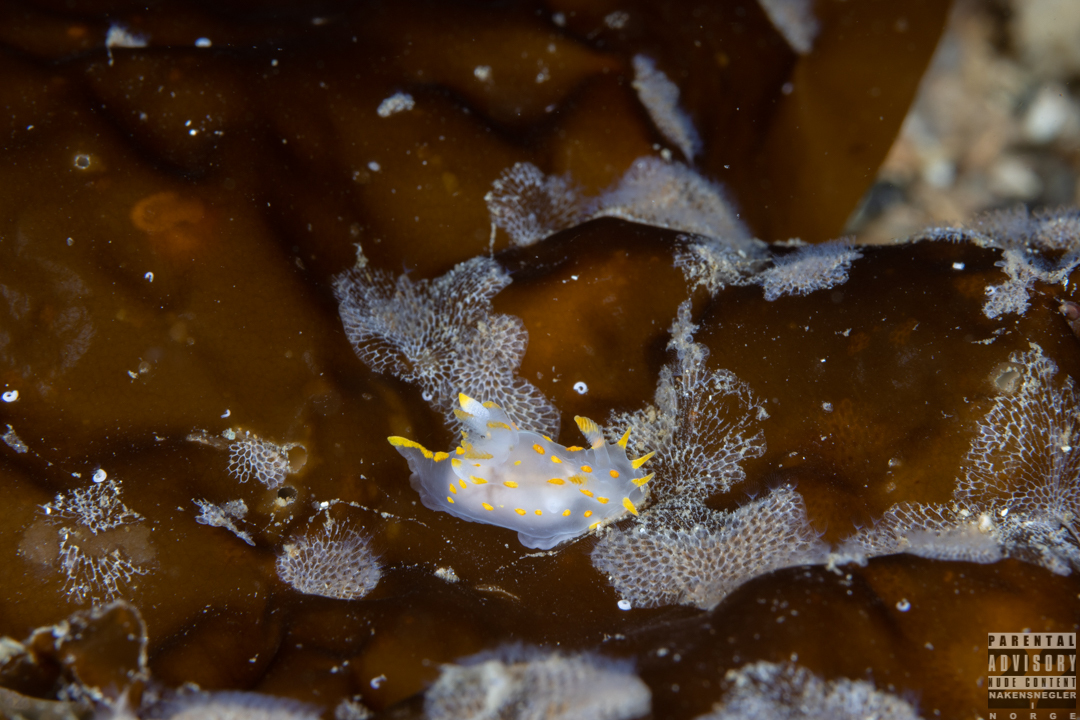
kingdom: Animalia
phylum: Mollusca
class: Gastropoda
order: Nudibranchia
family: Polyceridae
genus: Polycera
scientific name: Polycera norvegica
